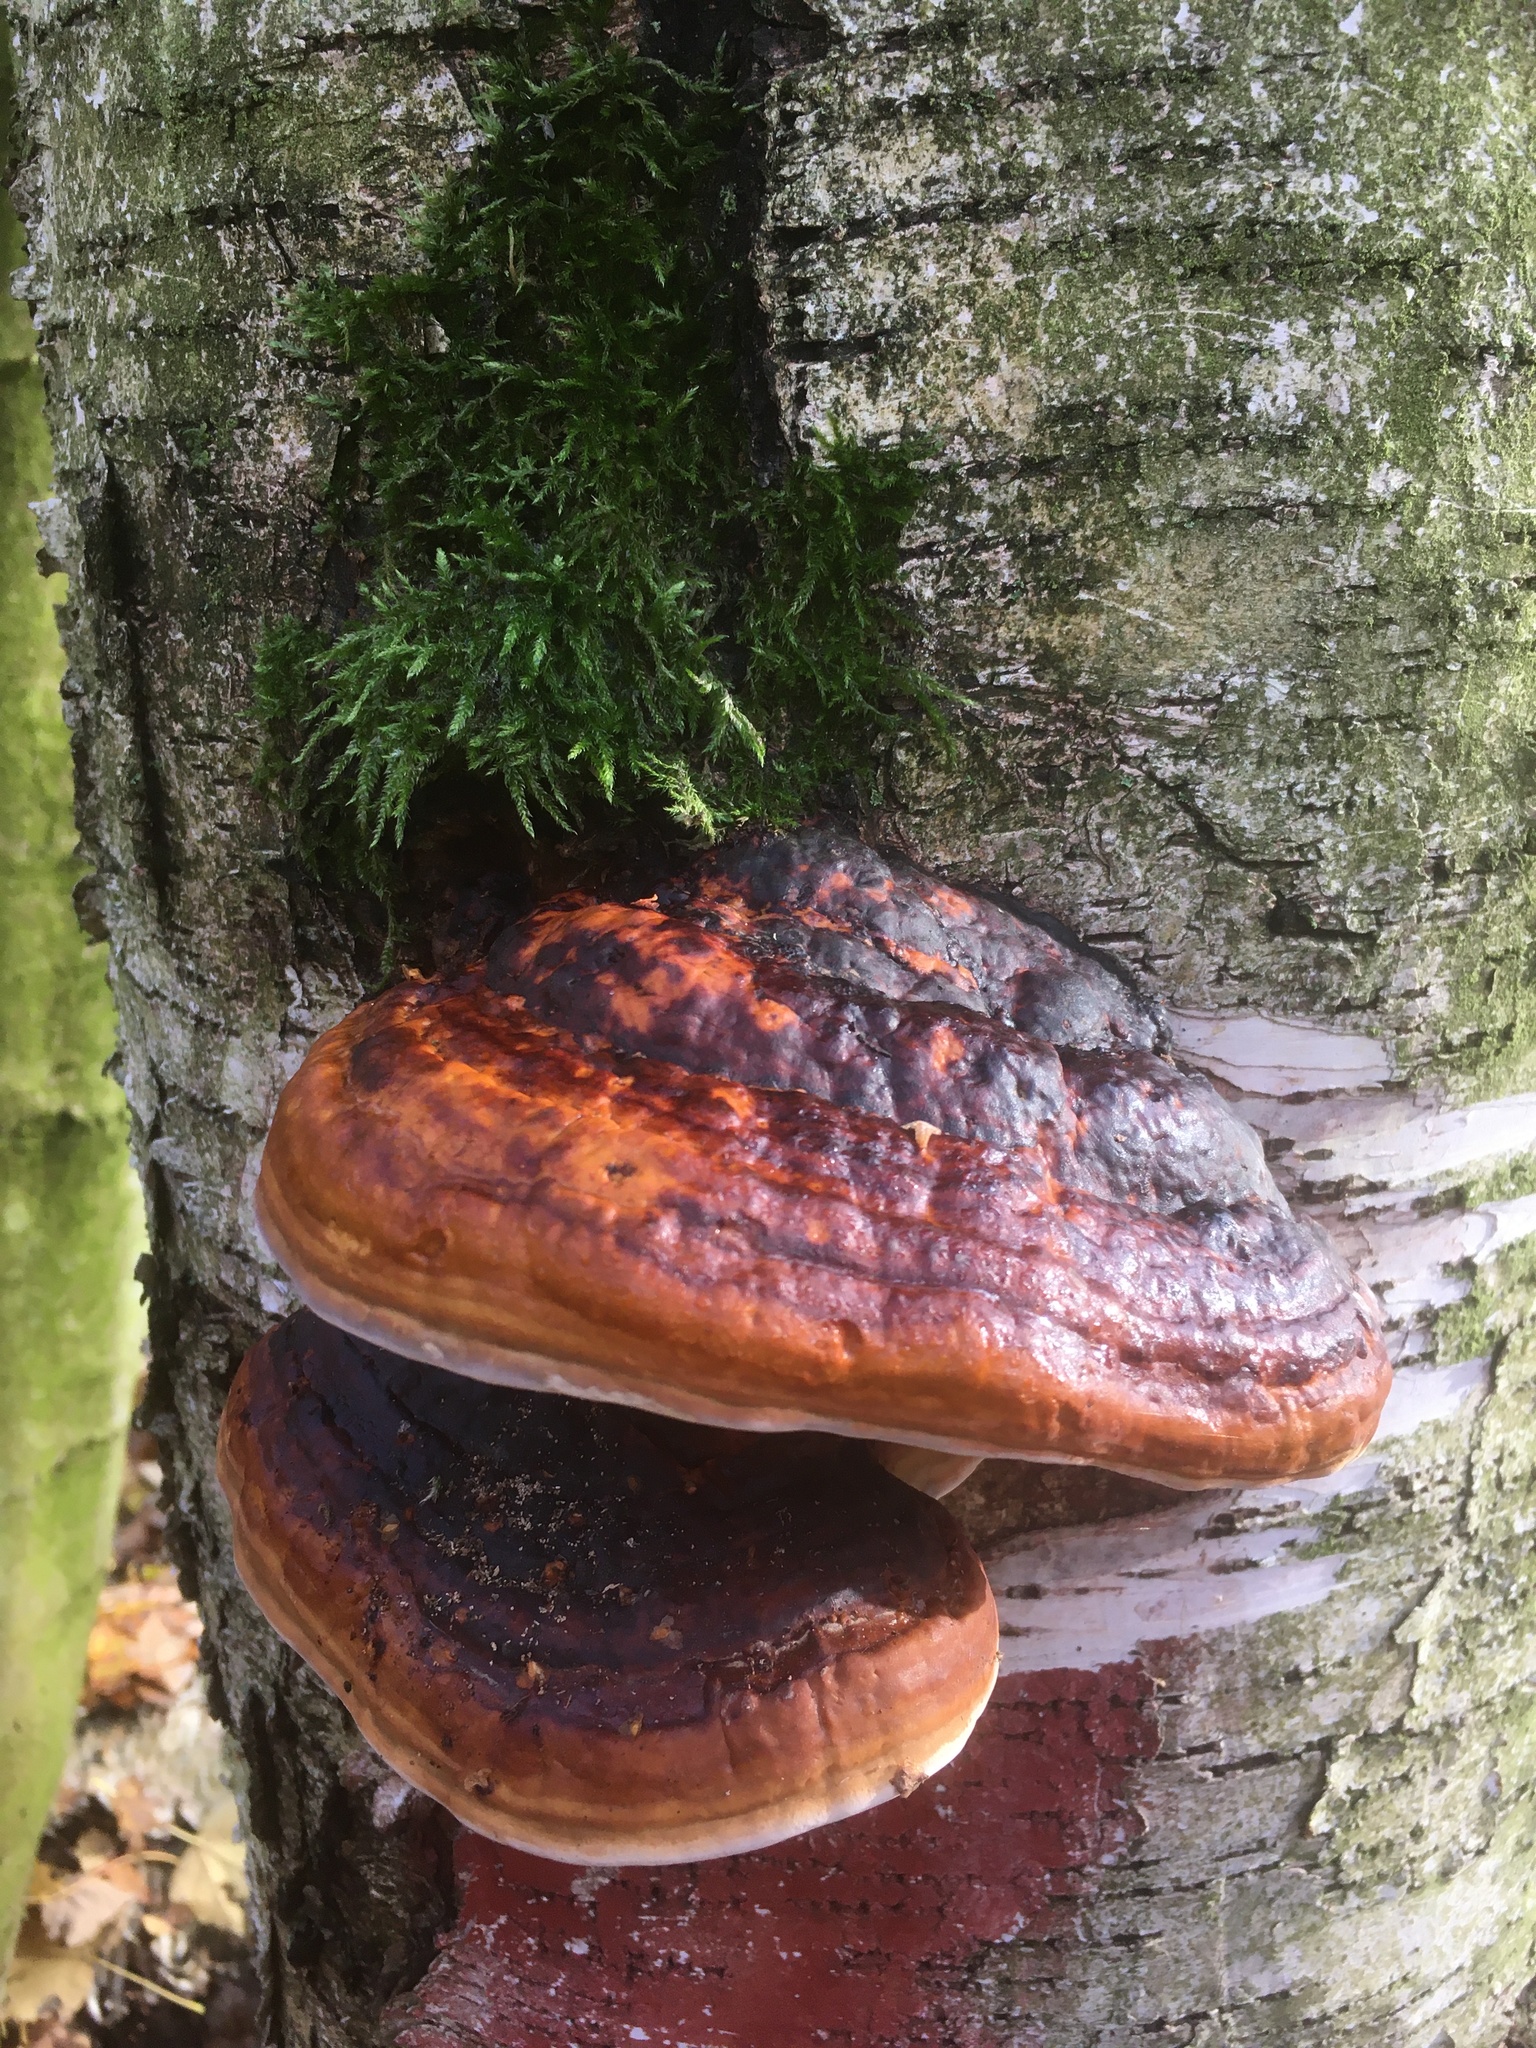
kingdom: Fungi
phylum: Basidiomycota
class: Agaricomycetes
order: Polyporales
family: Fomitopsidaceae
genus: Fomitopsis
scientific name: Fomitopsis pinicola
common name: Red-belted bracket
